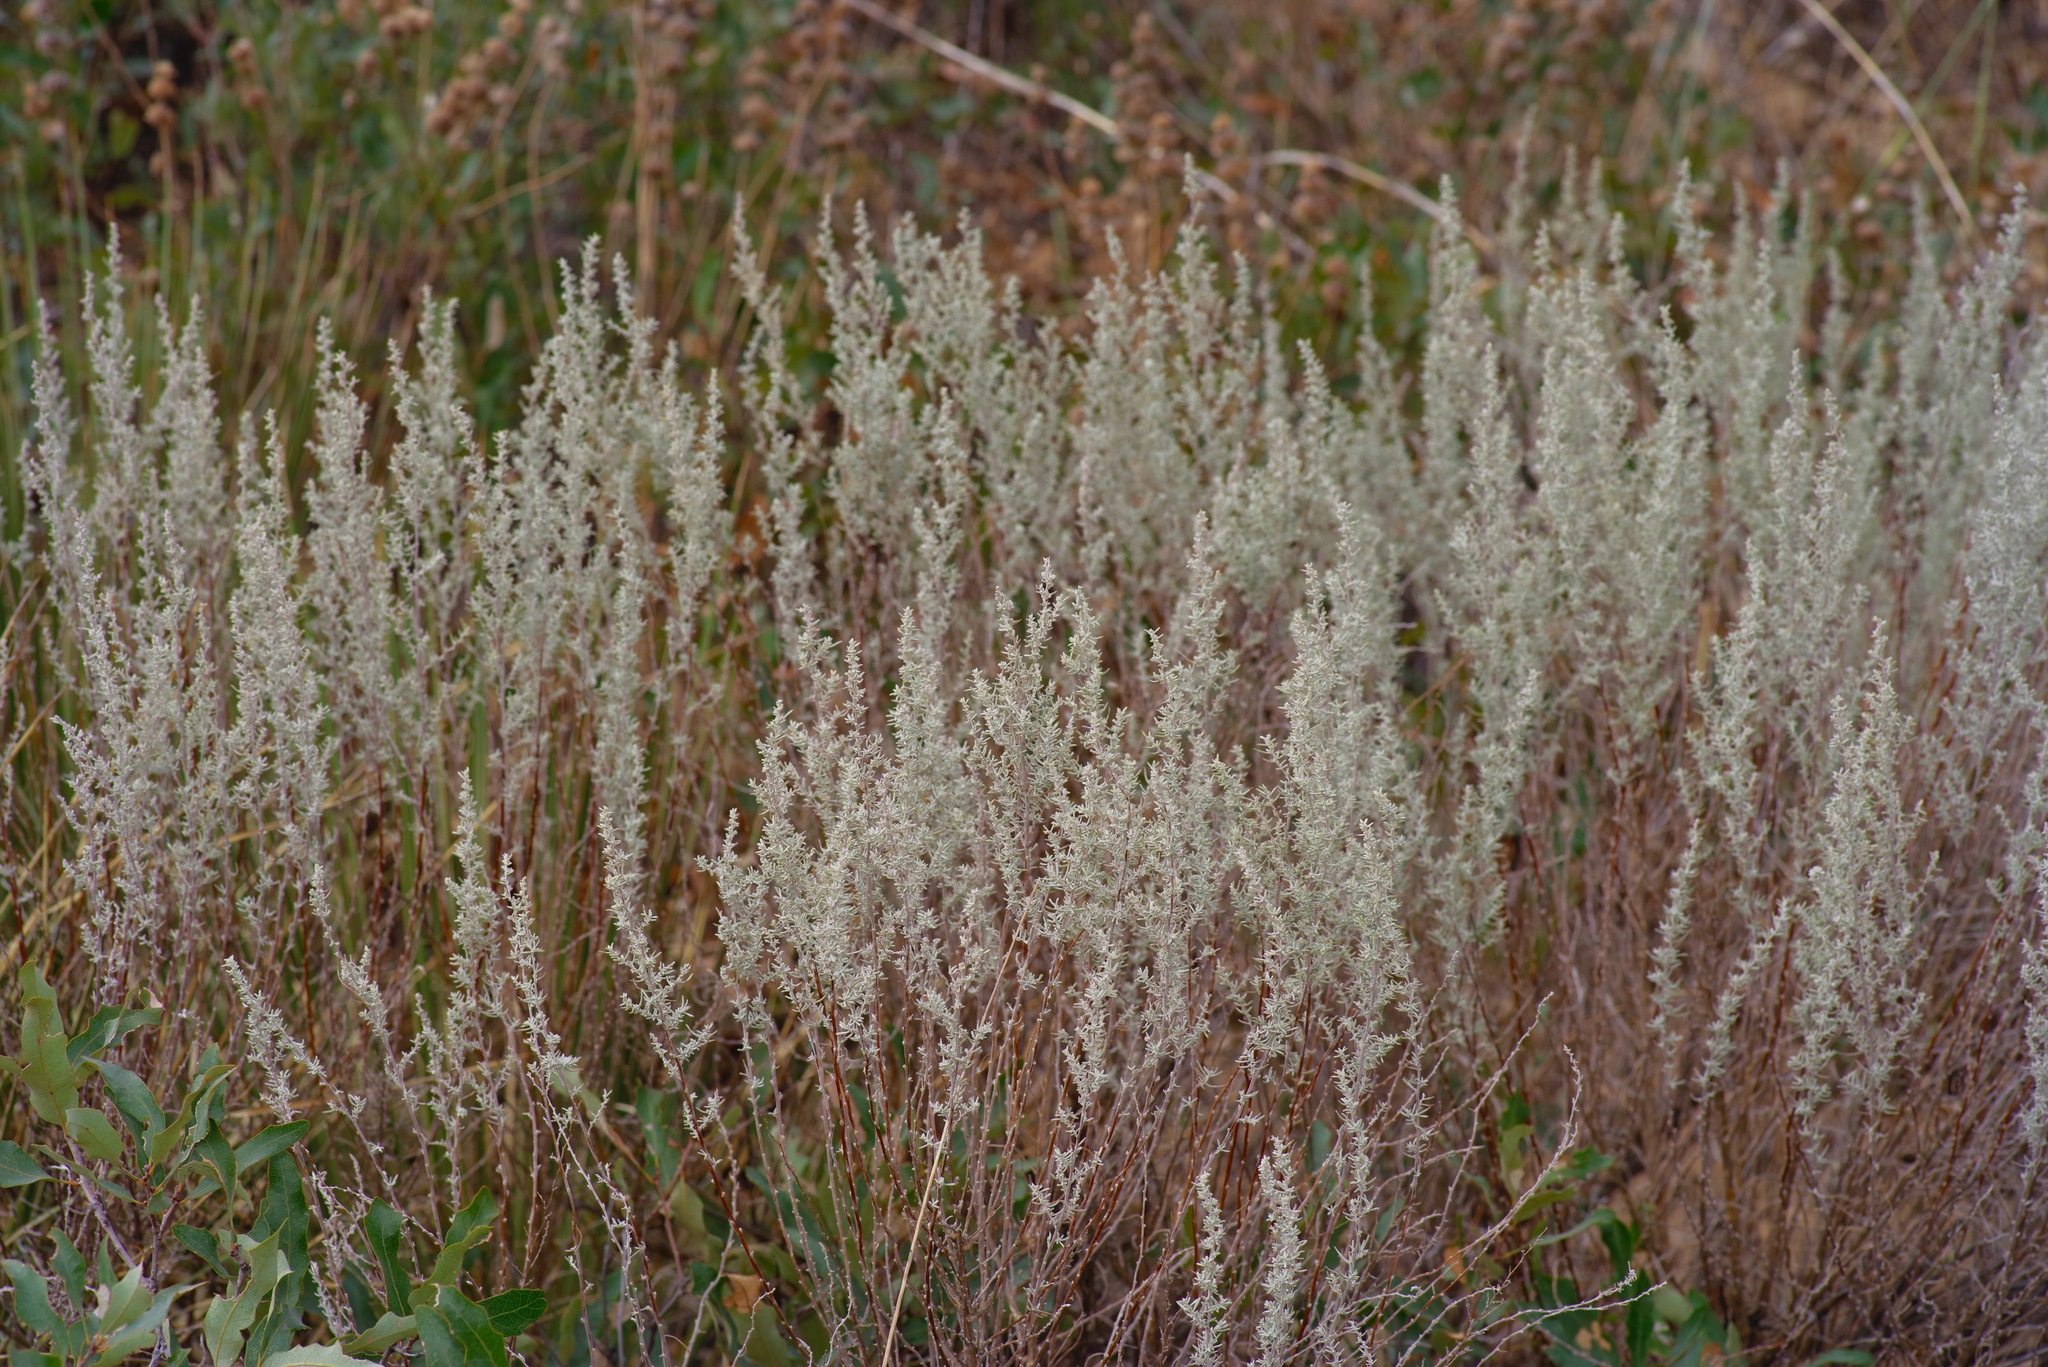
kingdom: Plantae
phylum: Tracheophyta
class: Magnoliopsida
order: Asterales
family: Asteraceae
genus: Artemisia
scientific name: Artemisia filifolia
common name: Sand-sage
